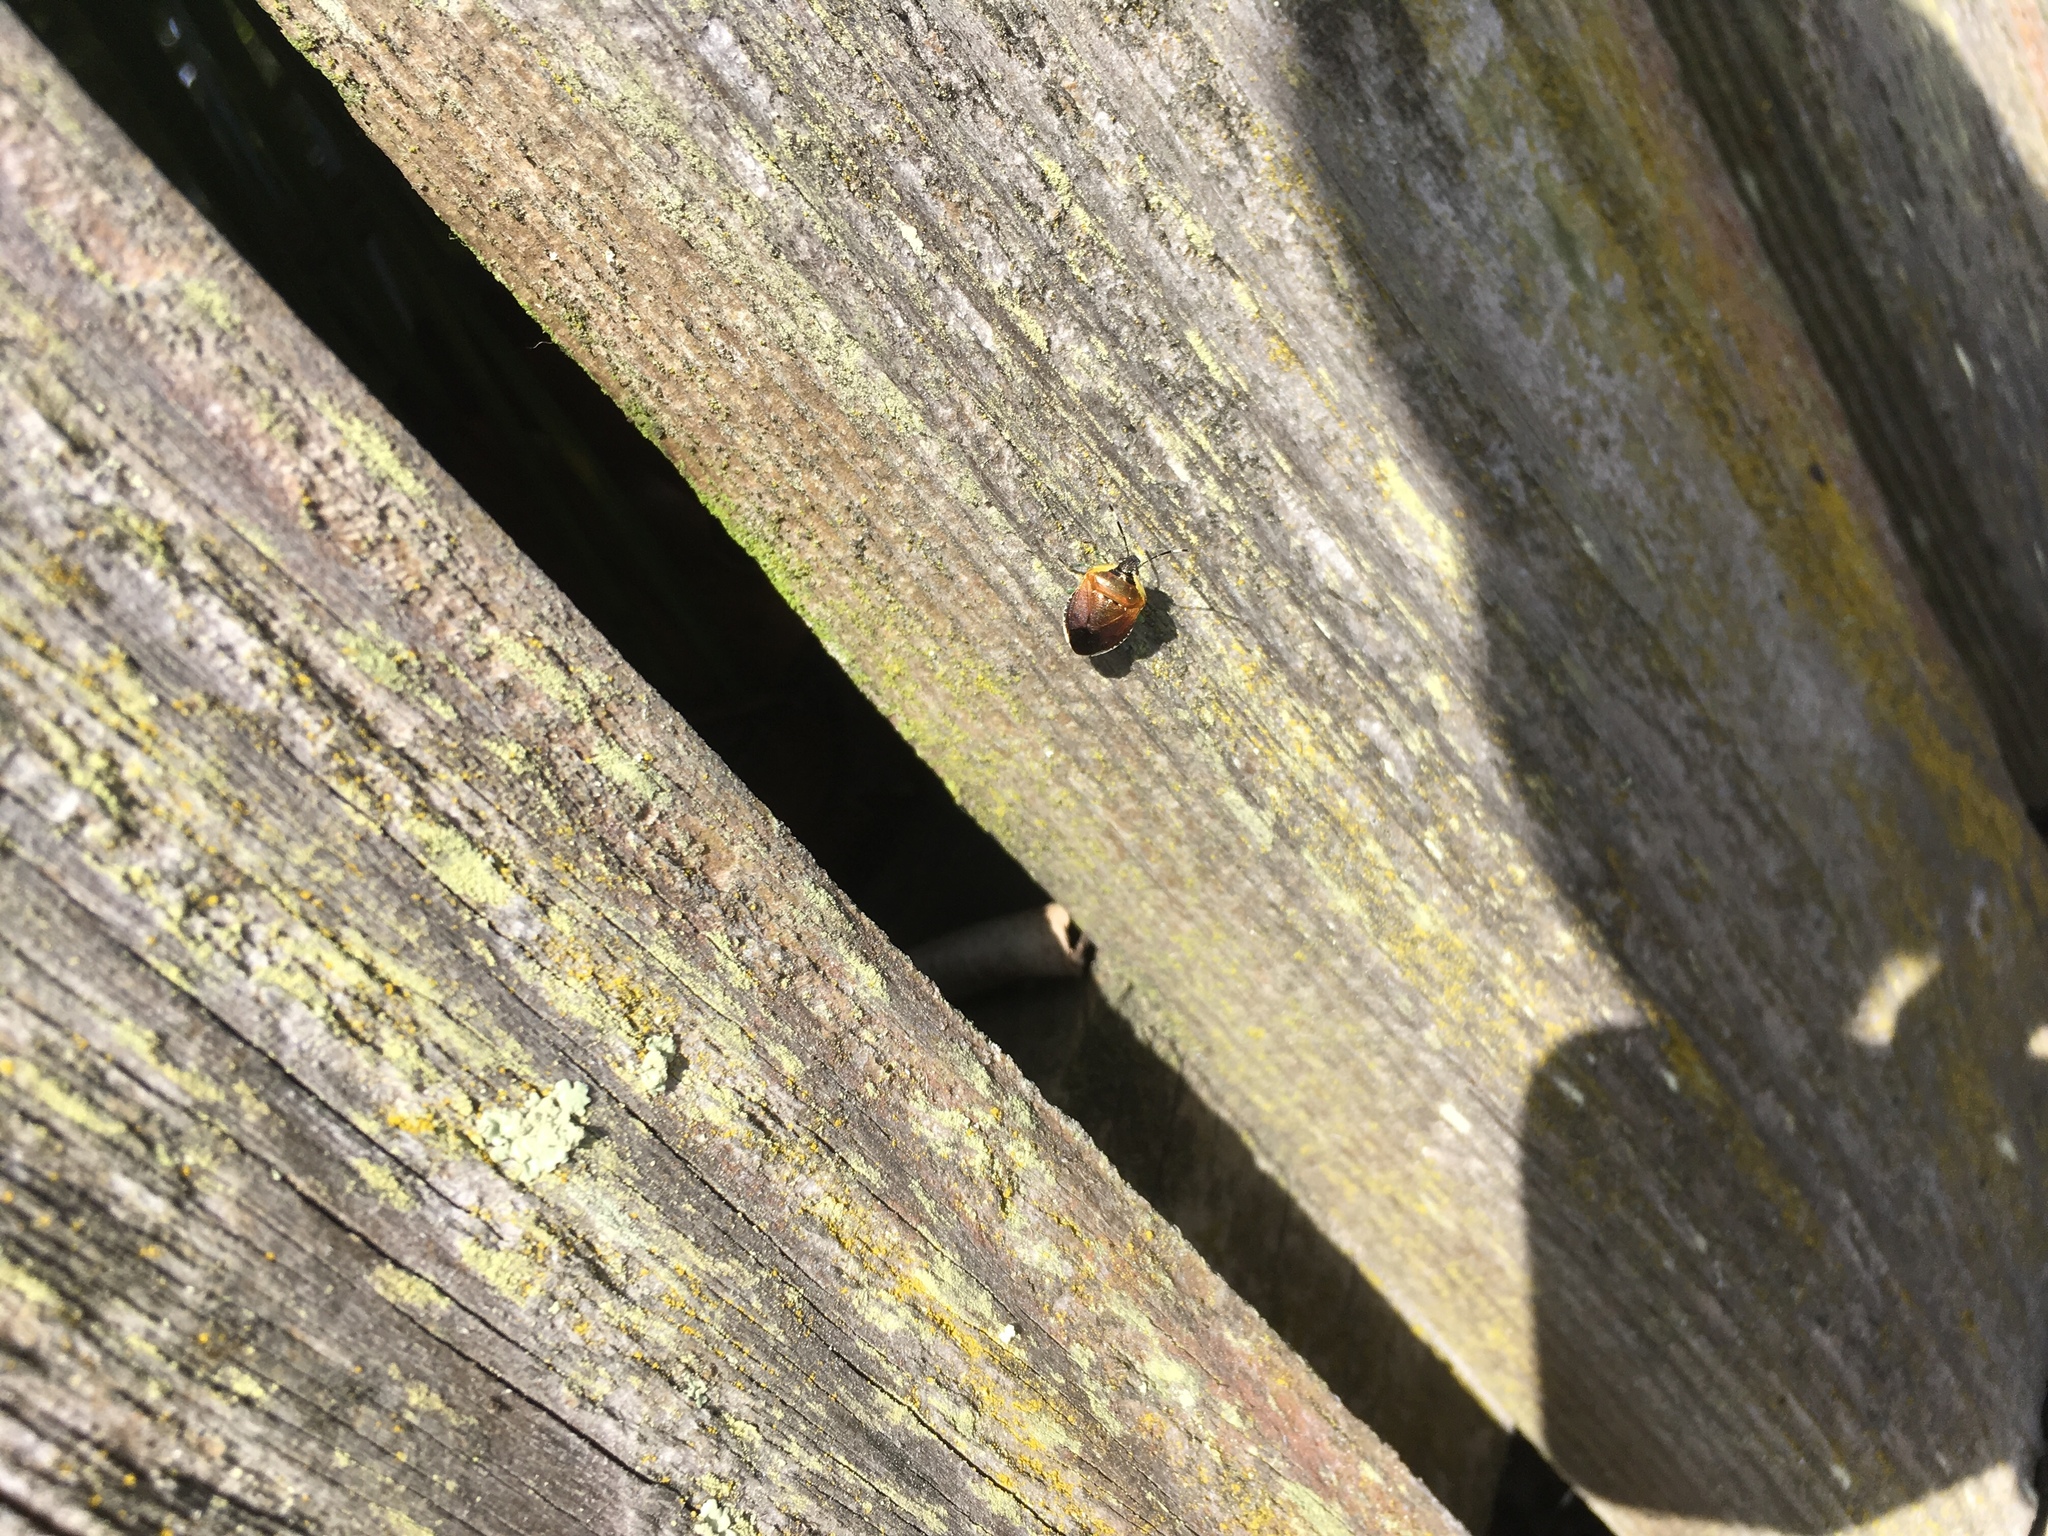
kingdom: Animalia
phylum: Arthropoda
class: Insecta
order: Hemiptera
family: Pentatomidae
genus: Monteithiella
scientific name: Monteithiella
